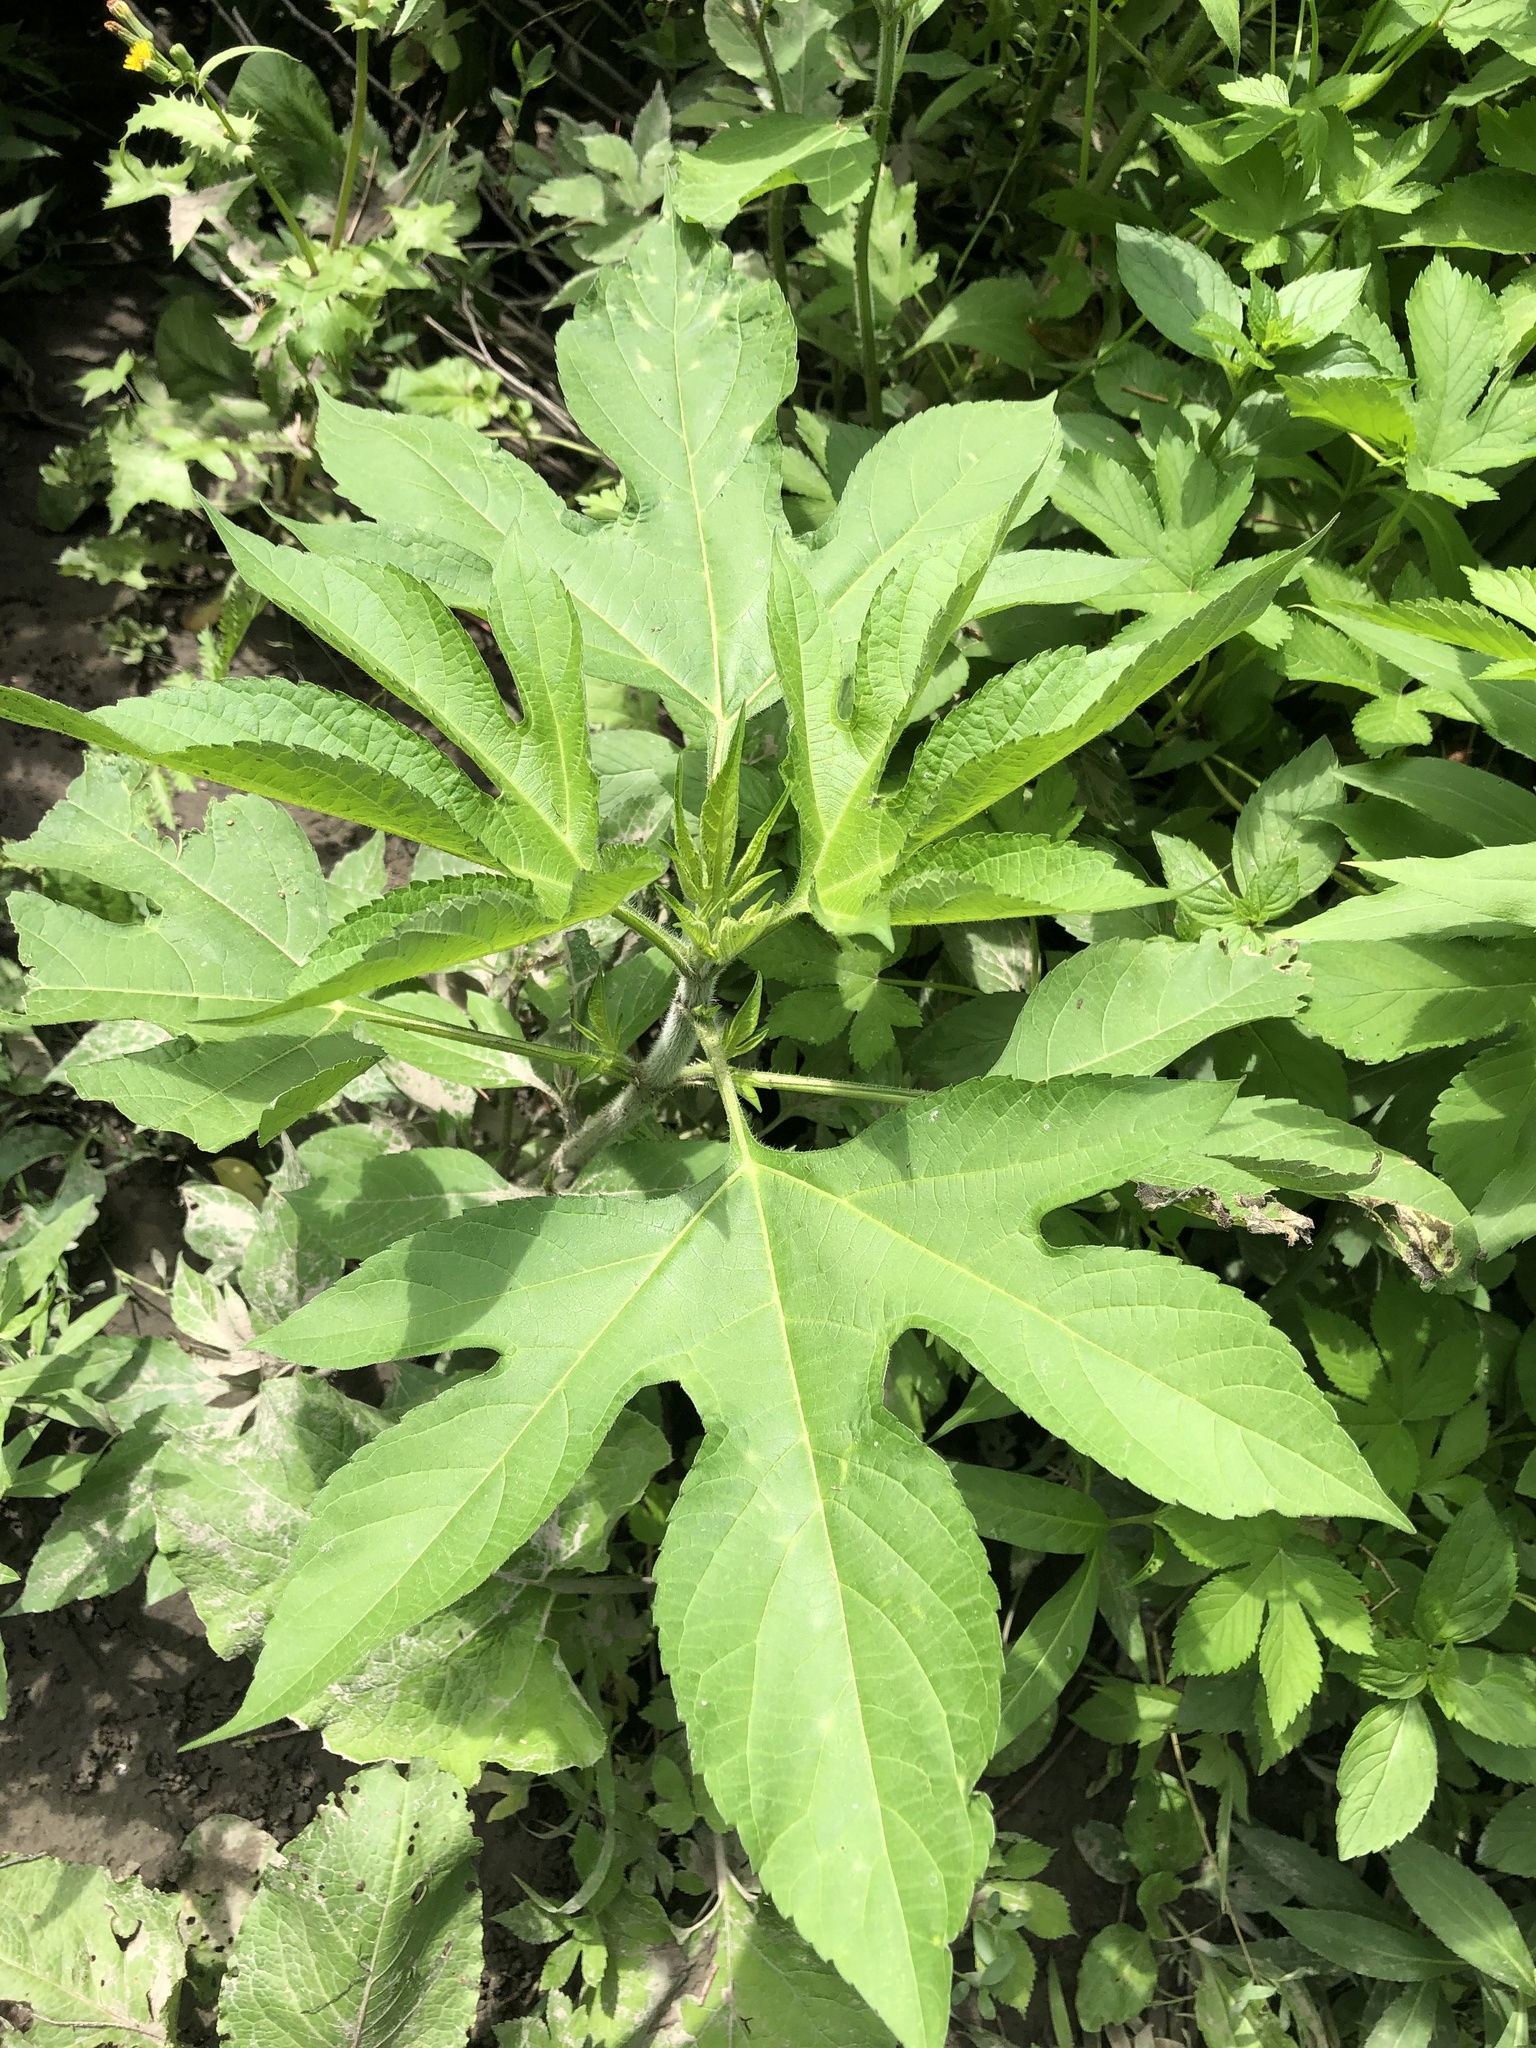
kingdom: Plantae
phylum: Tracheophyta
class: Magnoliopsida
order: Asterales
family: Asteraceae
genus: Ambrosia
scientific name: Ambrosia trifida
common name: Giant ragweed
